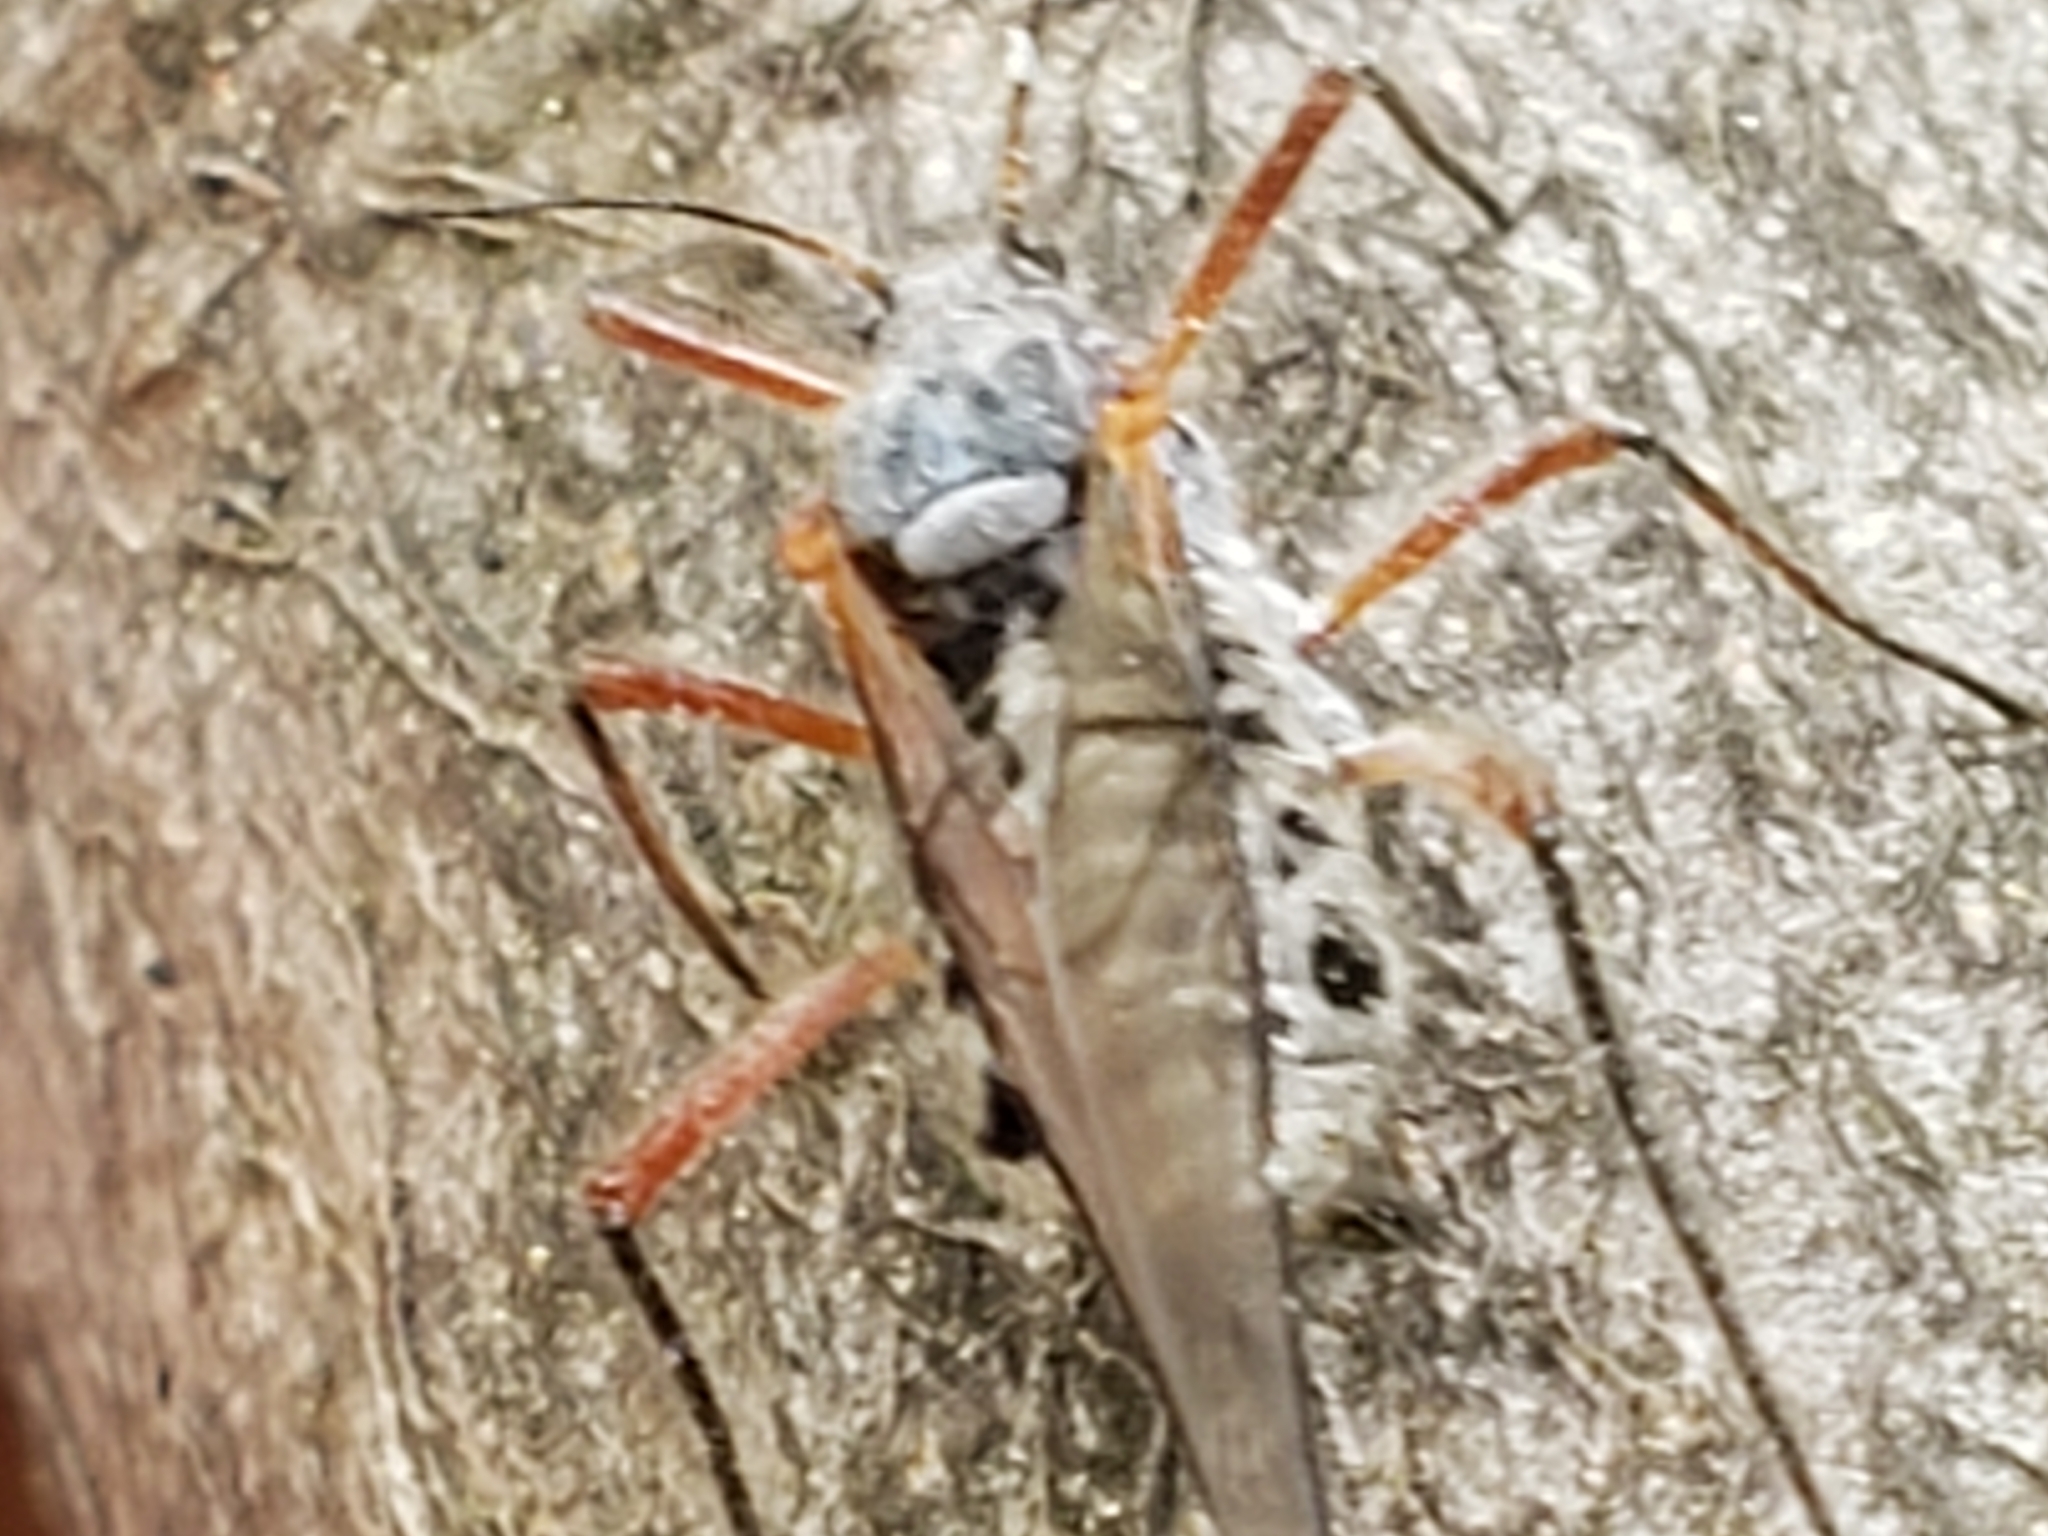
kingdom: Animalia
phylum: Arthropoda
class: Insecta
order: Hemiptera
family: Aphididae
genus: Longistigma
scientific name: Longistigma caryae
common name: Giant bark aphid
